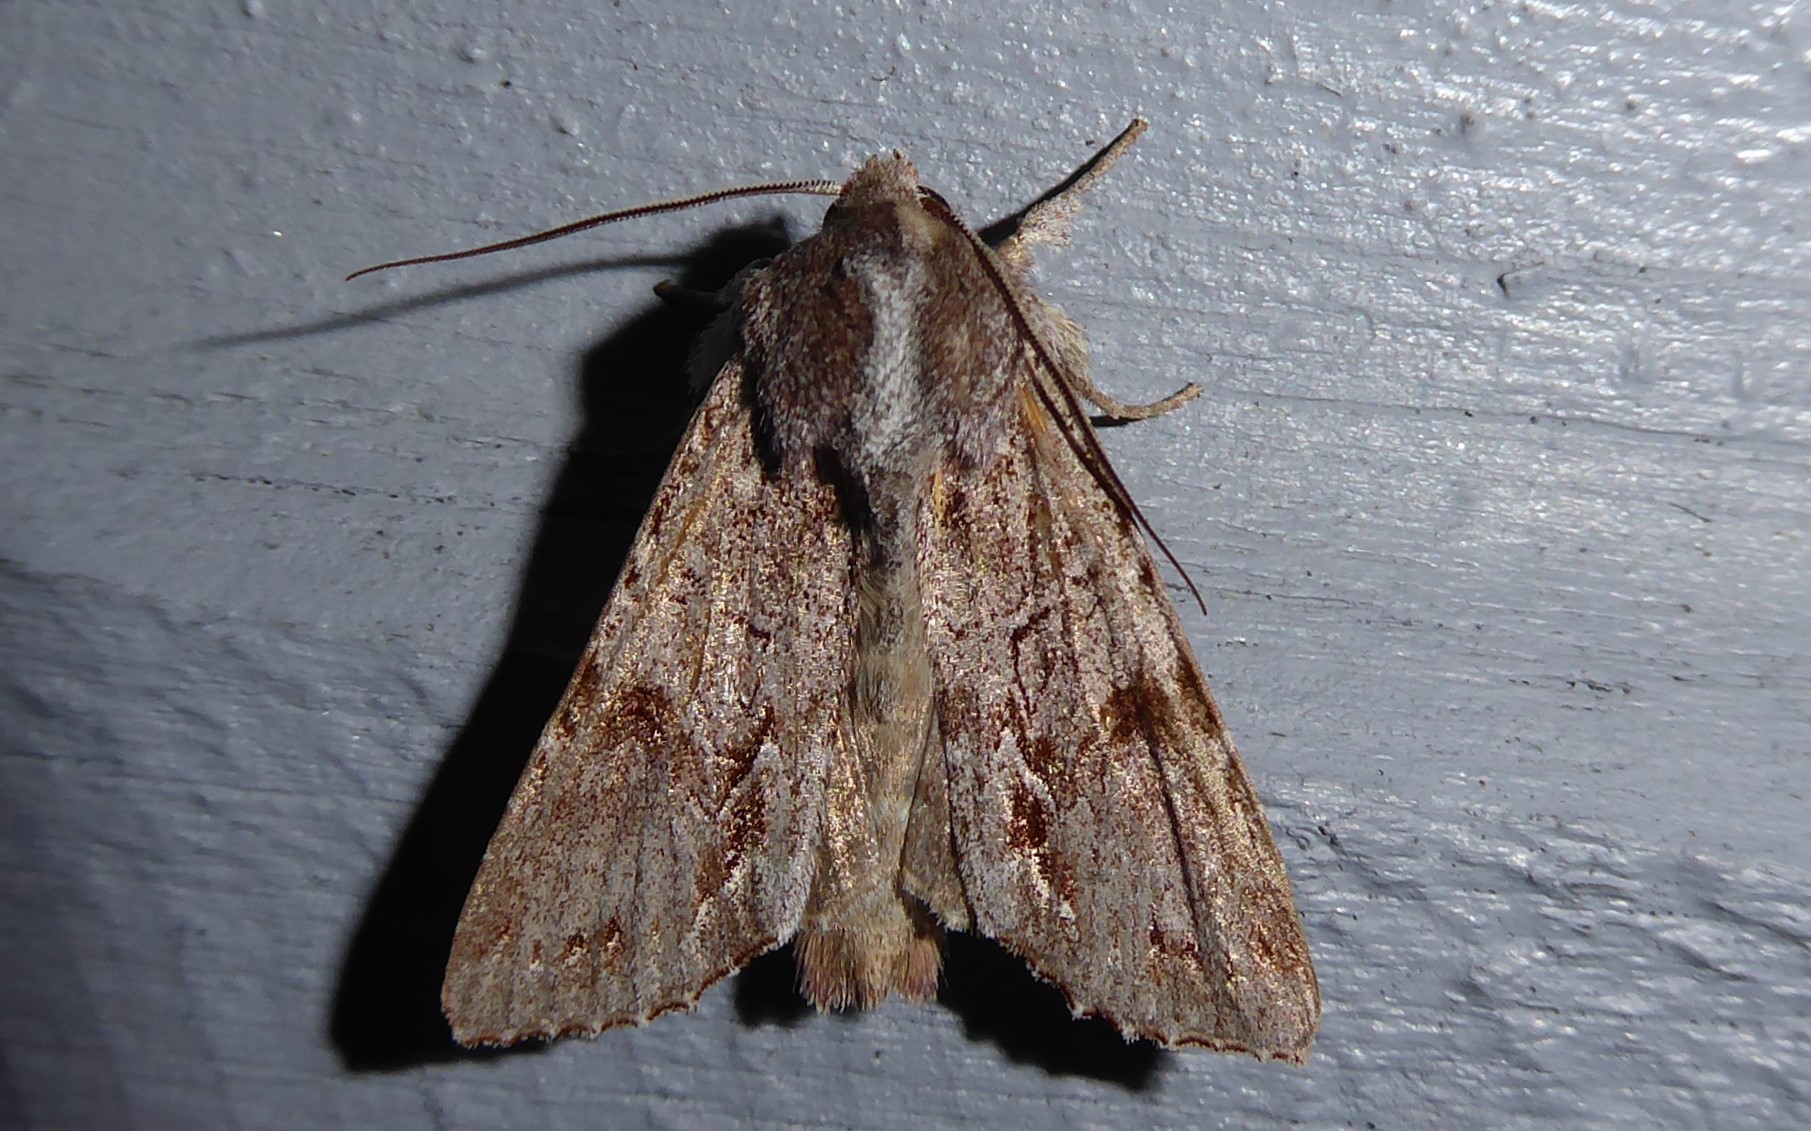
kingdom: Animalia
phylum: Arthropoda
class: Insecta
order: Lepidoptera
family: Noctuidae
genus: Ichneutica
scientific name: Ichneutica
